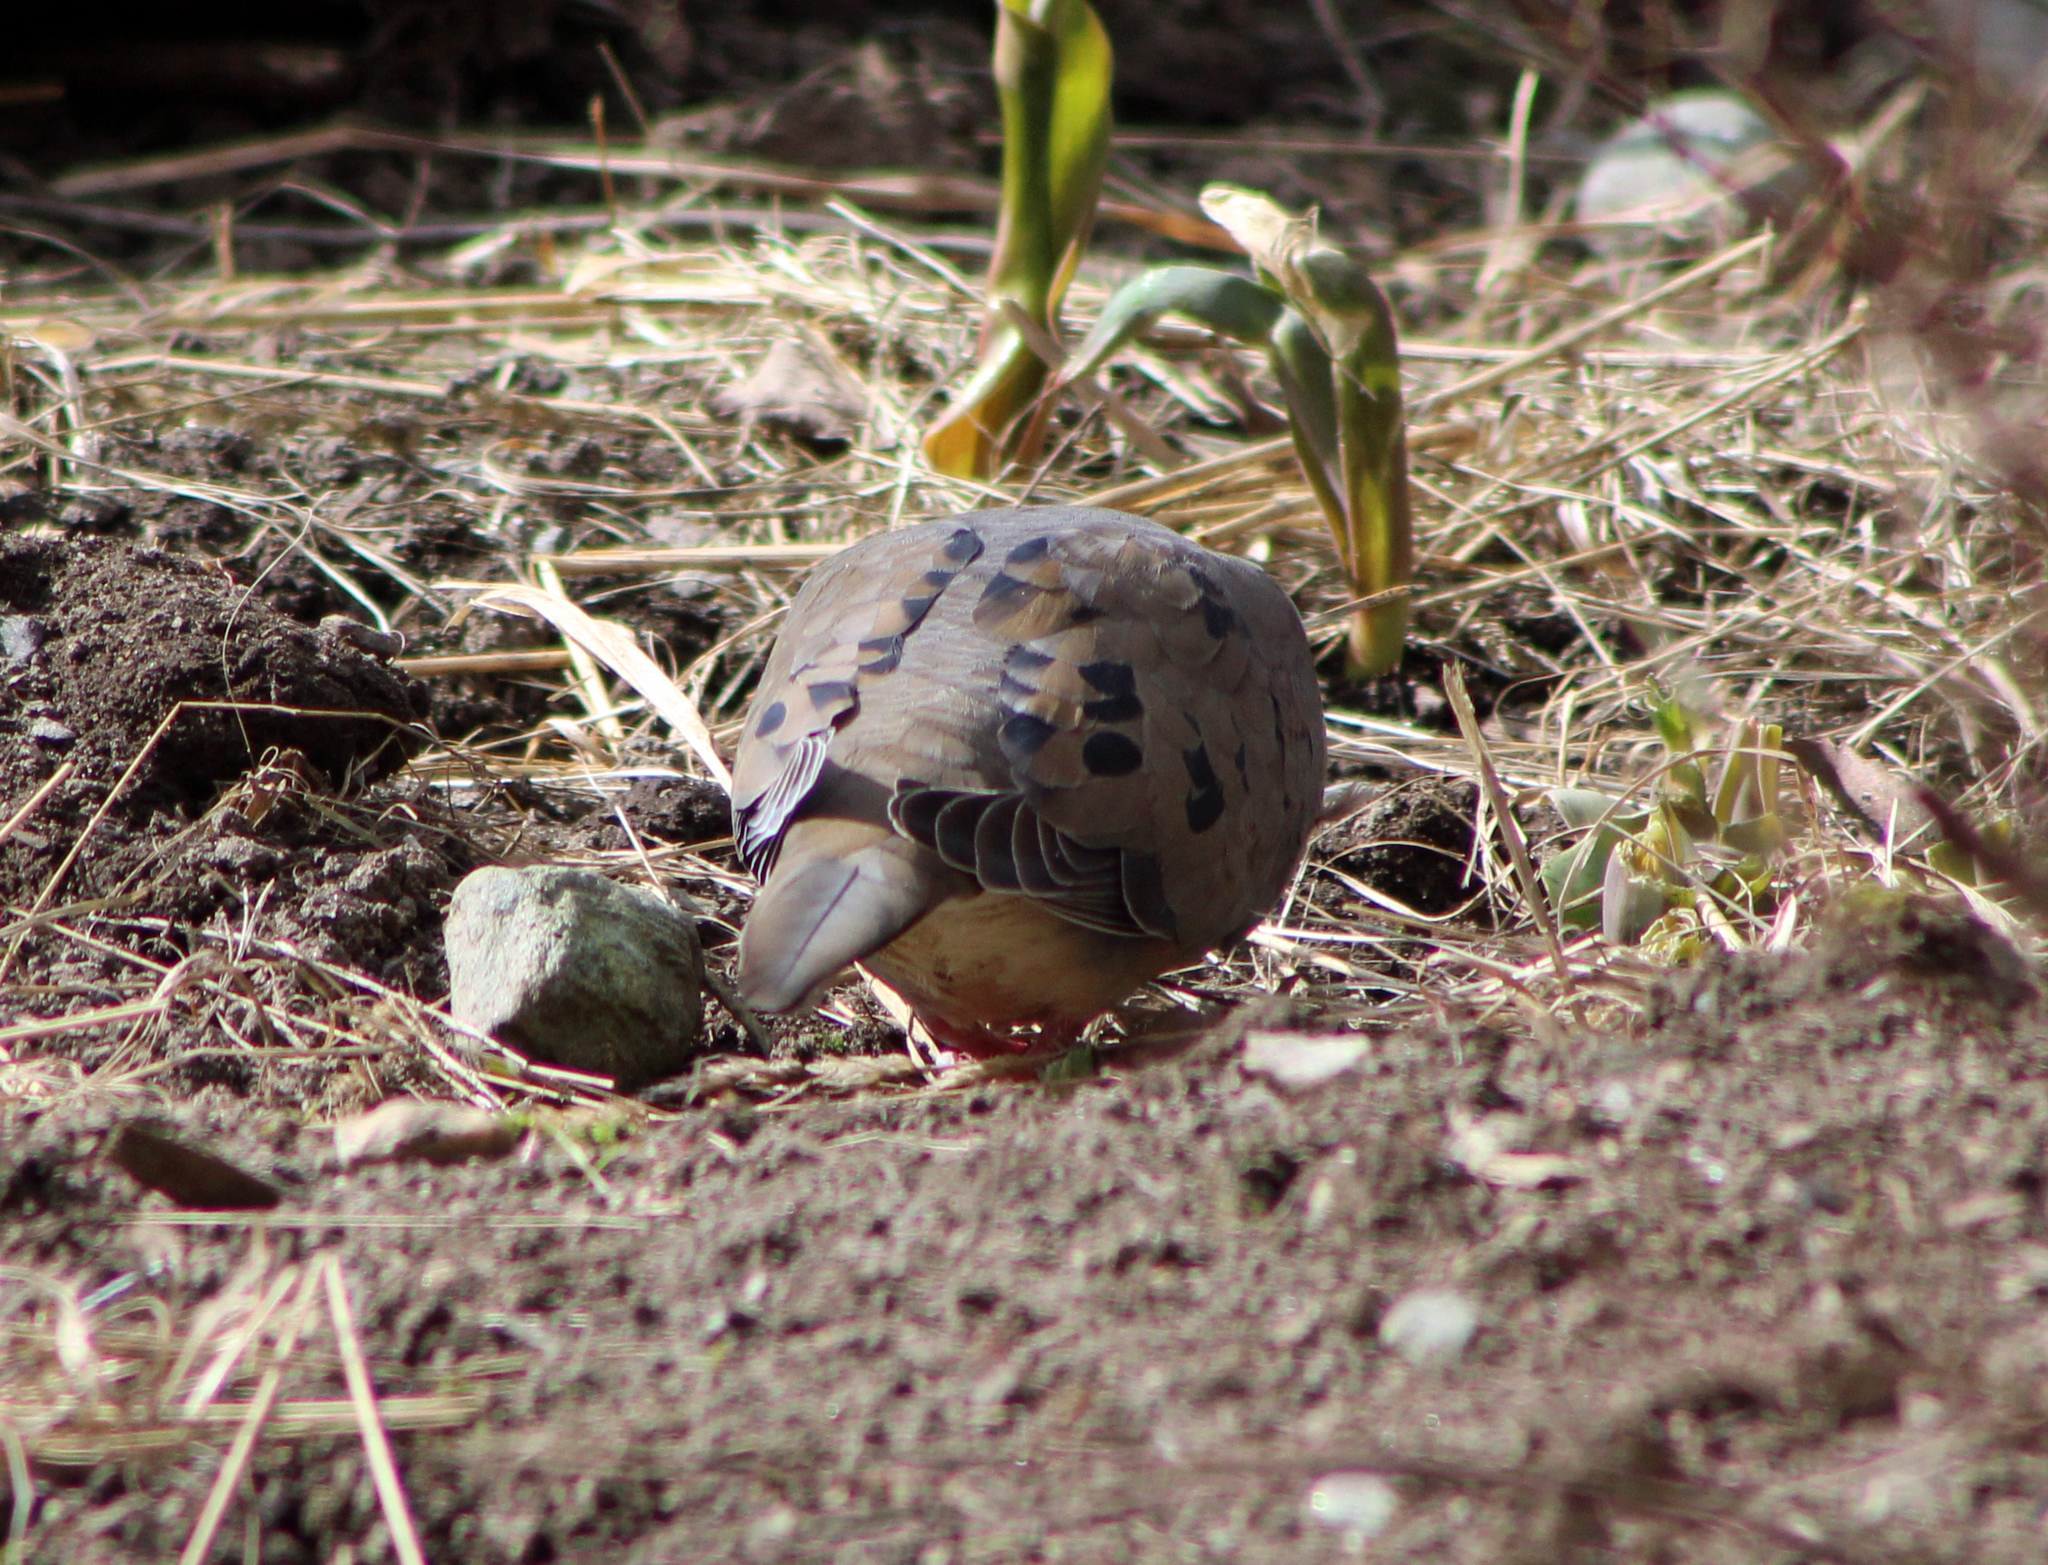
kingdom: Animalia
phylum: Chordata
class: Aves
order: Columbiformes
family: Columbidae
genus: Zenaida
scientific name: Zenaida macroura
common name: Mourning dove
